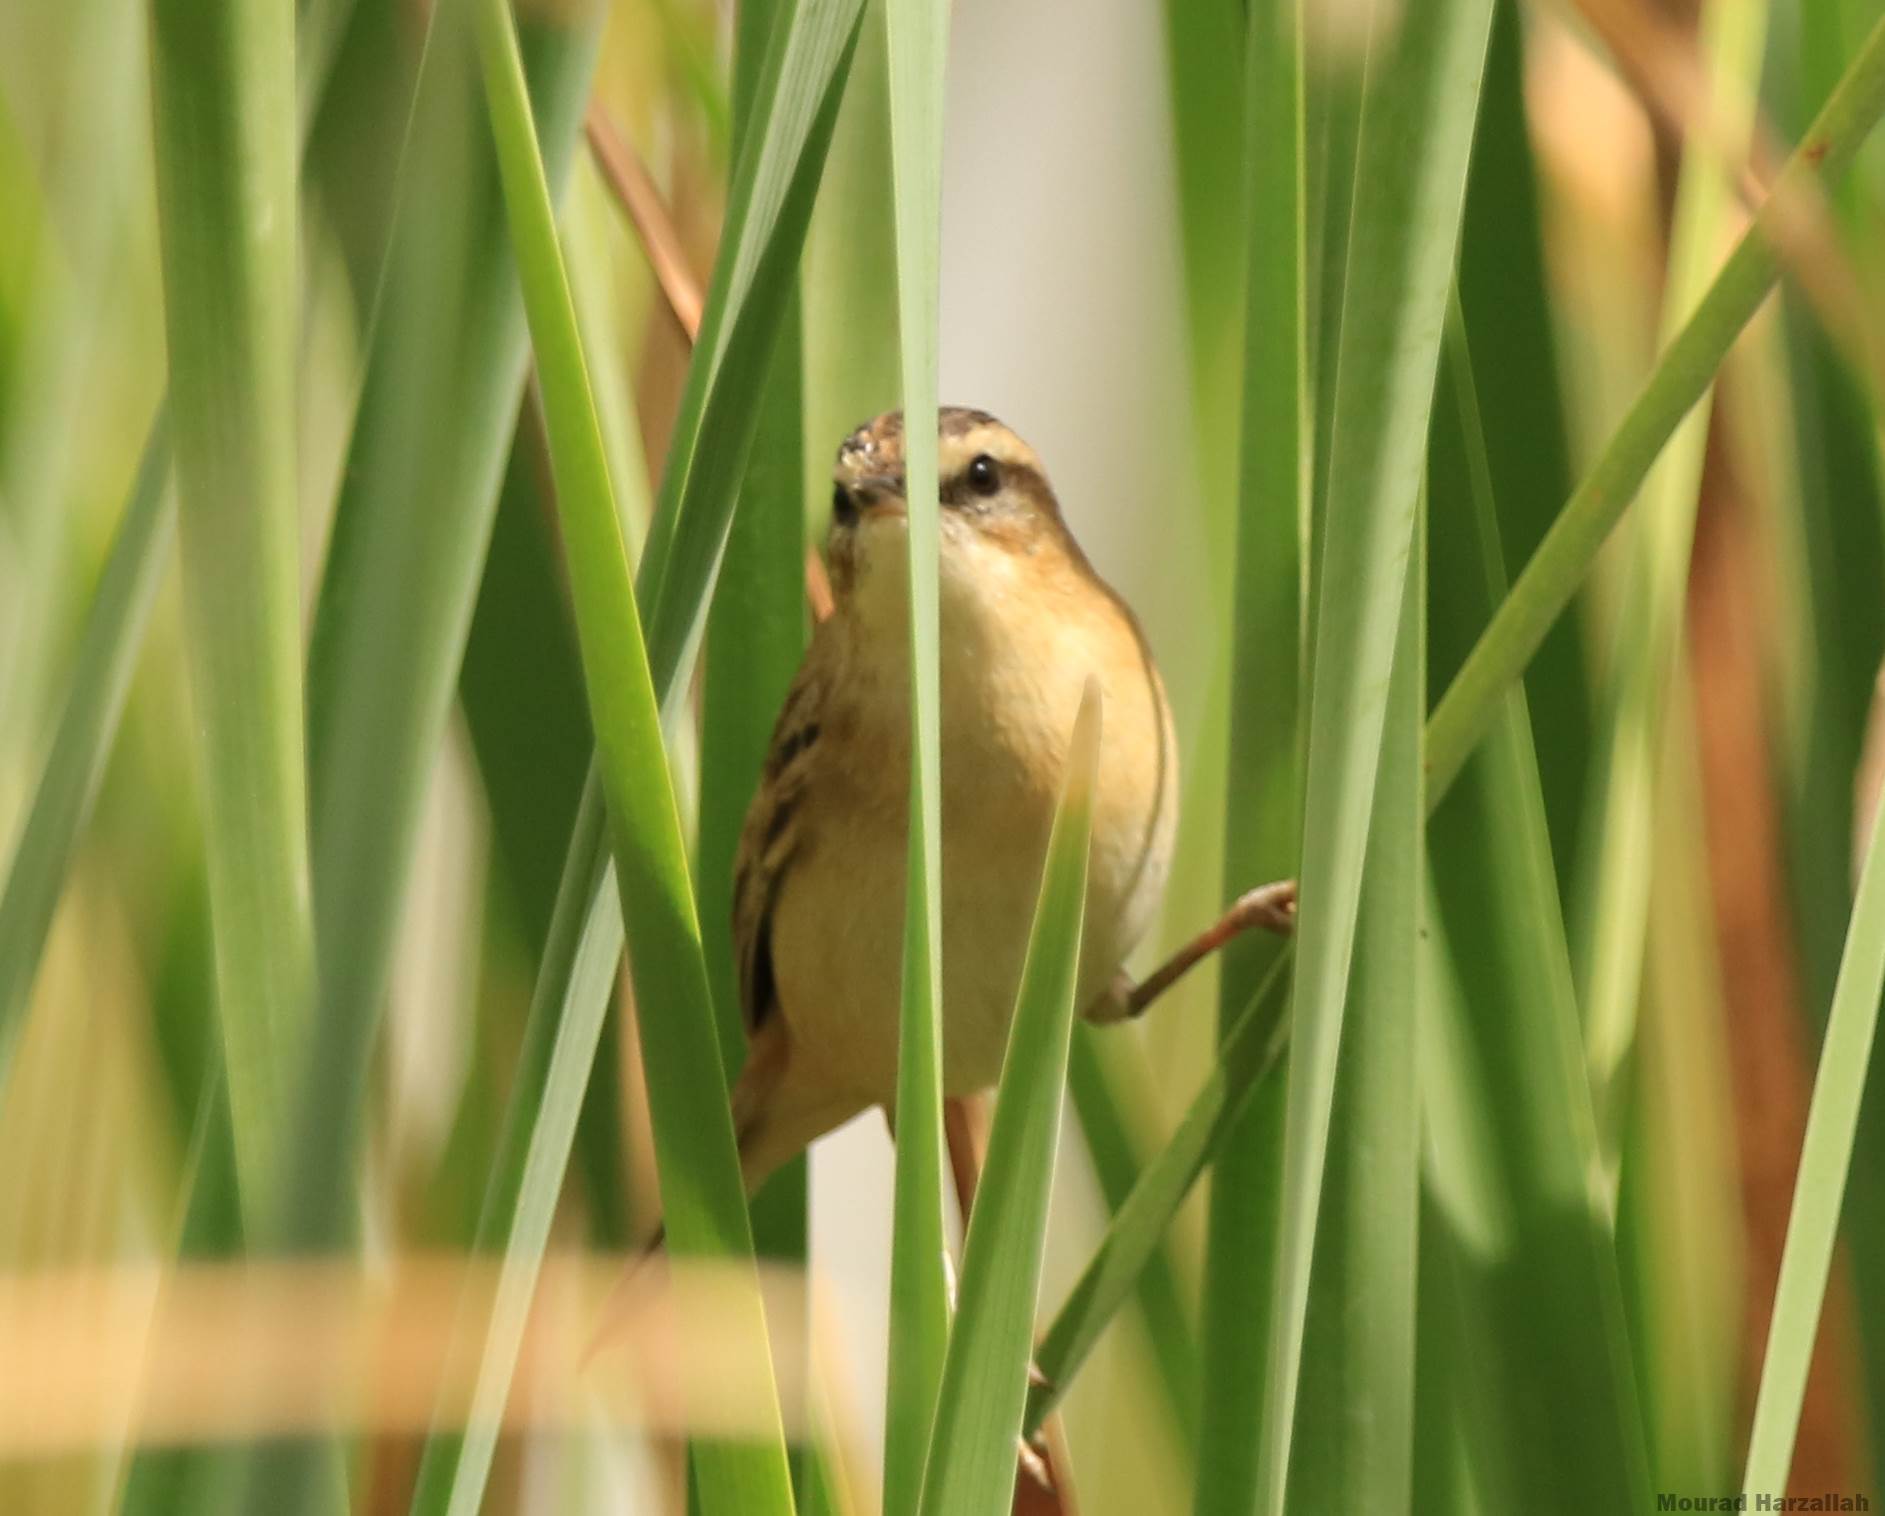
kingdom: Animalia
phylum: Chordata
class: Aves
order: Passeriformes
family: Acrocephalidae
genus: Acrocephalus
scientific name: Acrocephalus schoenobaenus
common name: Sedge warbler
